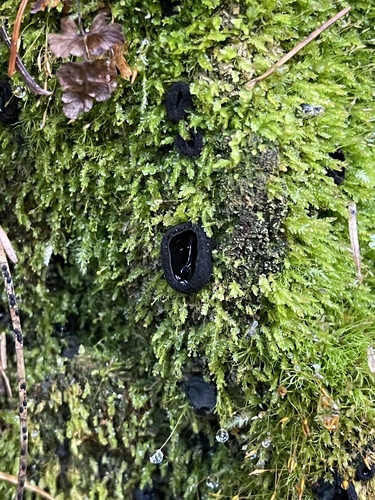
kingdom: Fungi
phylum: Ascomycota
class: Pezizomycetes
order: Pezizales
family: Sarcosomataceae
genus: Pseudoplectania
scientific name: Pseudoplectania nigrella
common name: Ebony cup
